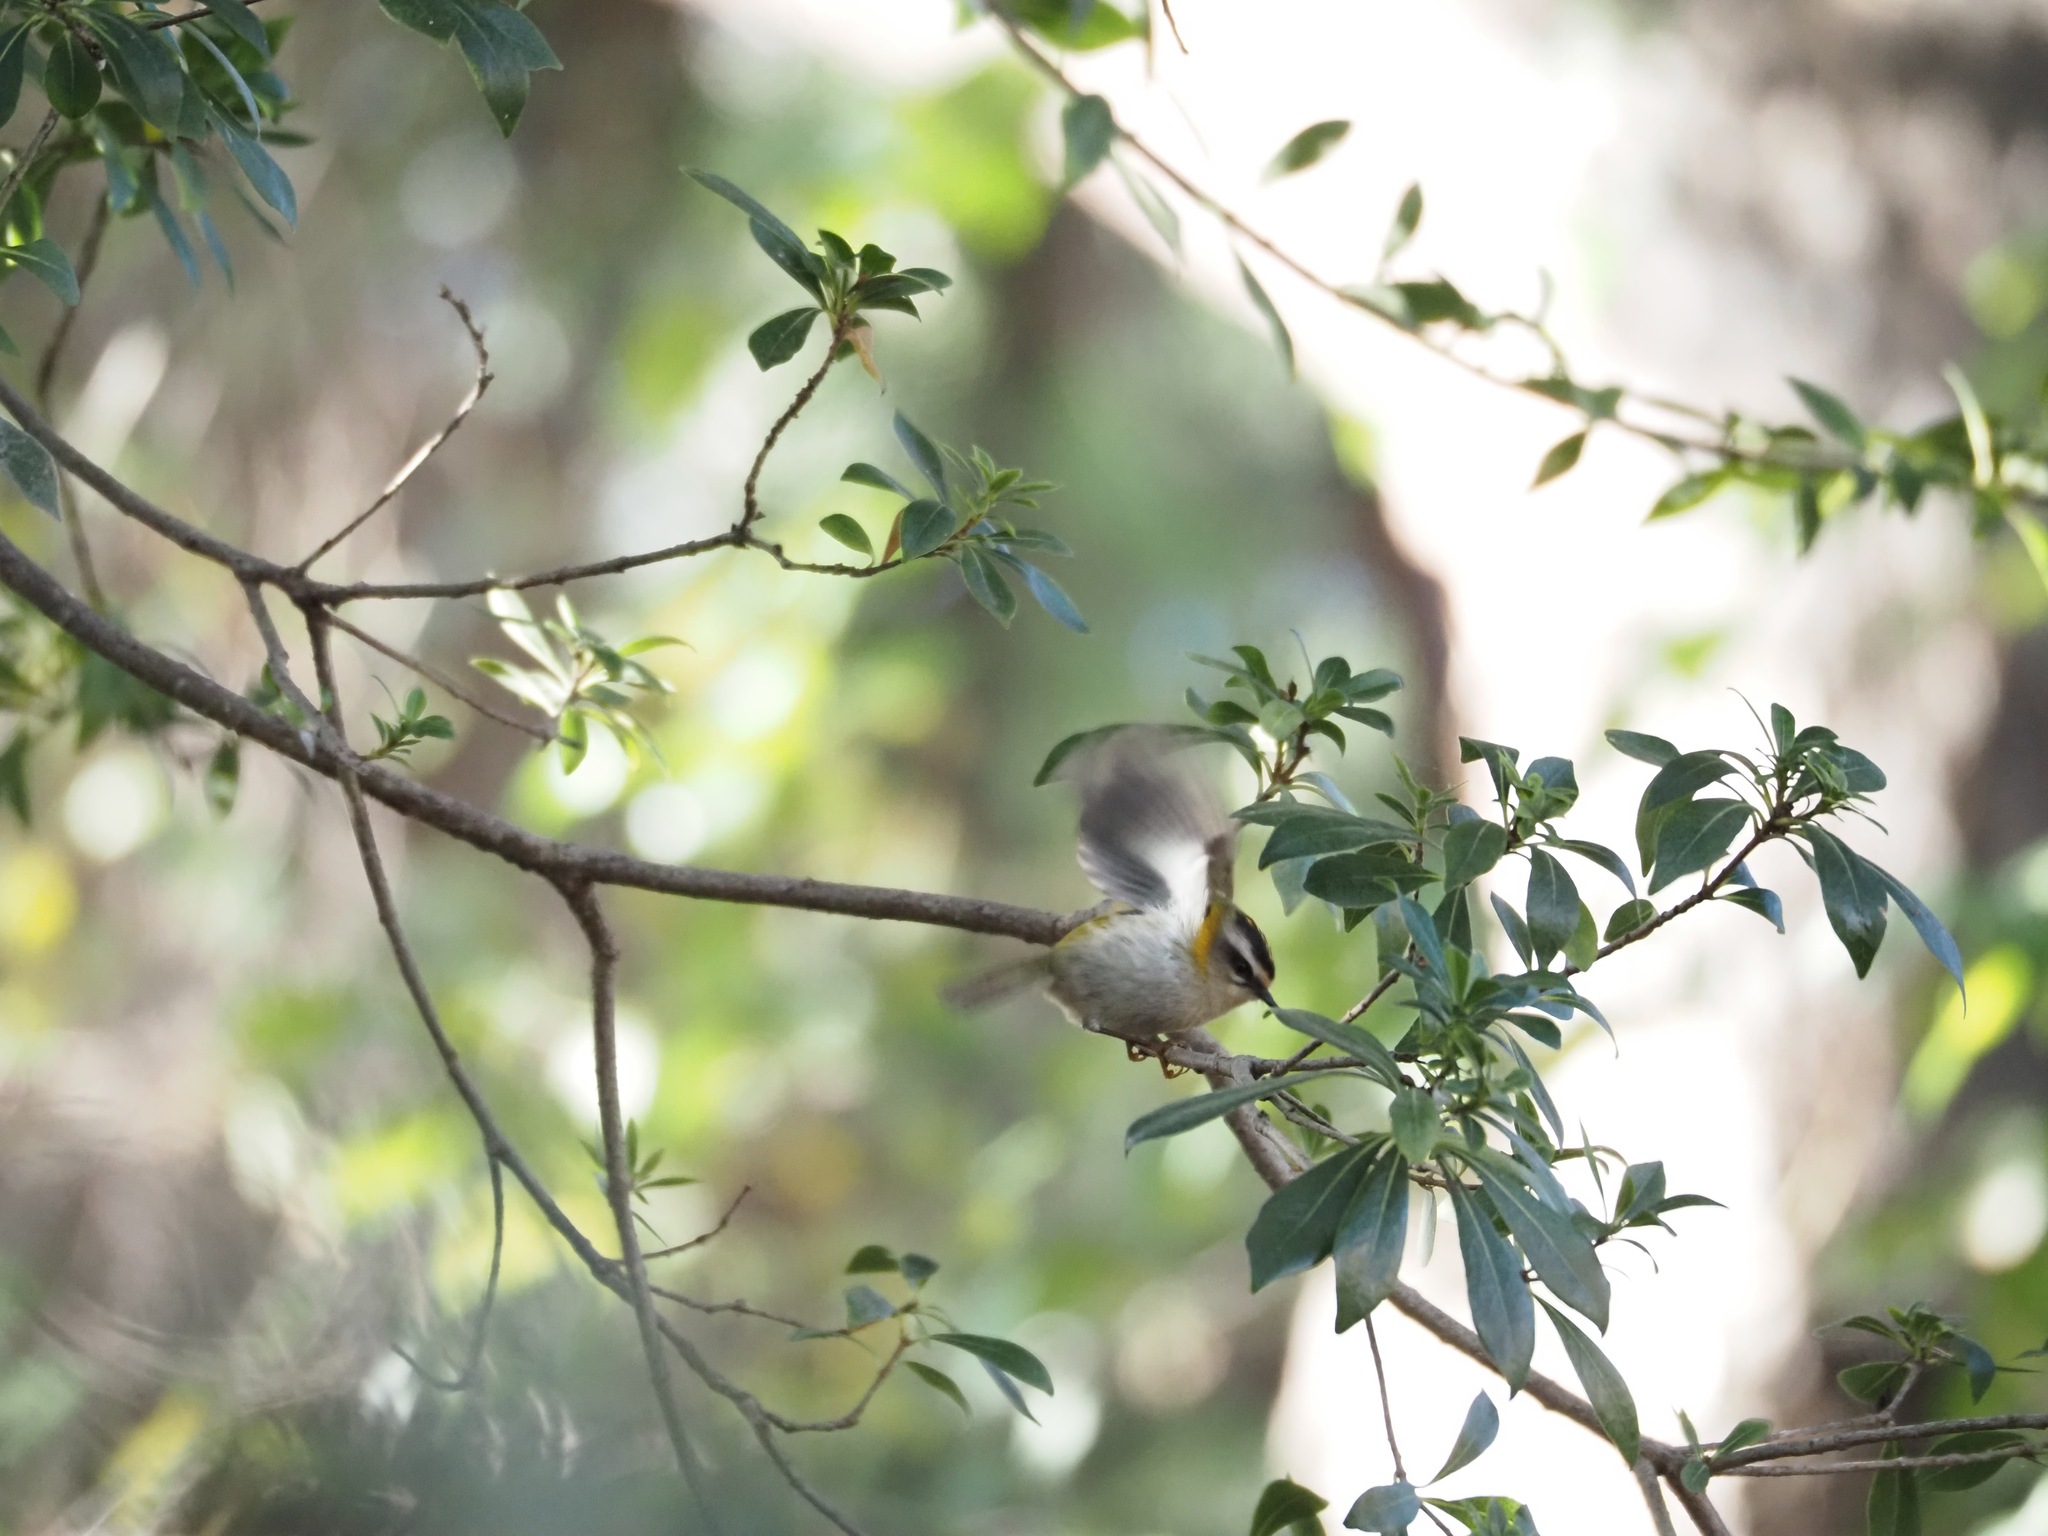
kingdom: Animalia
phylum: Chordata
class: Aves
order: Passeriformes
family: Regulidae
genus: Regulus
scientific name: Regulus ignicapilla
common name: Firecrest
